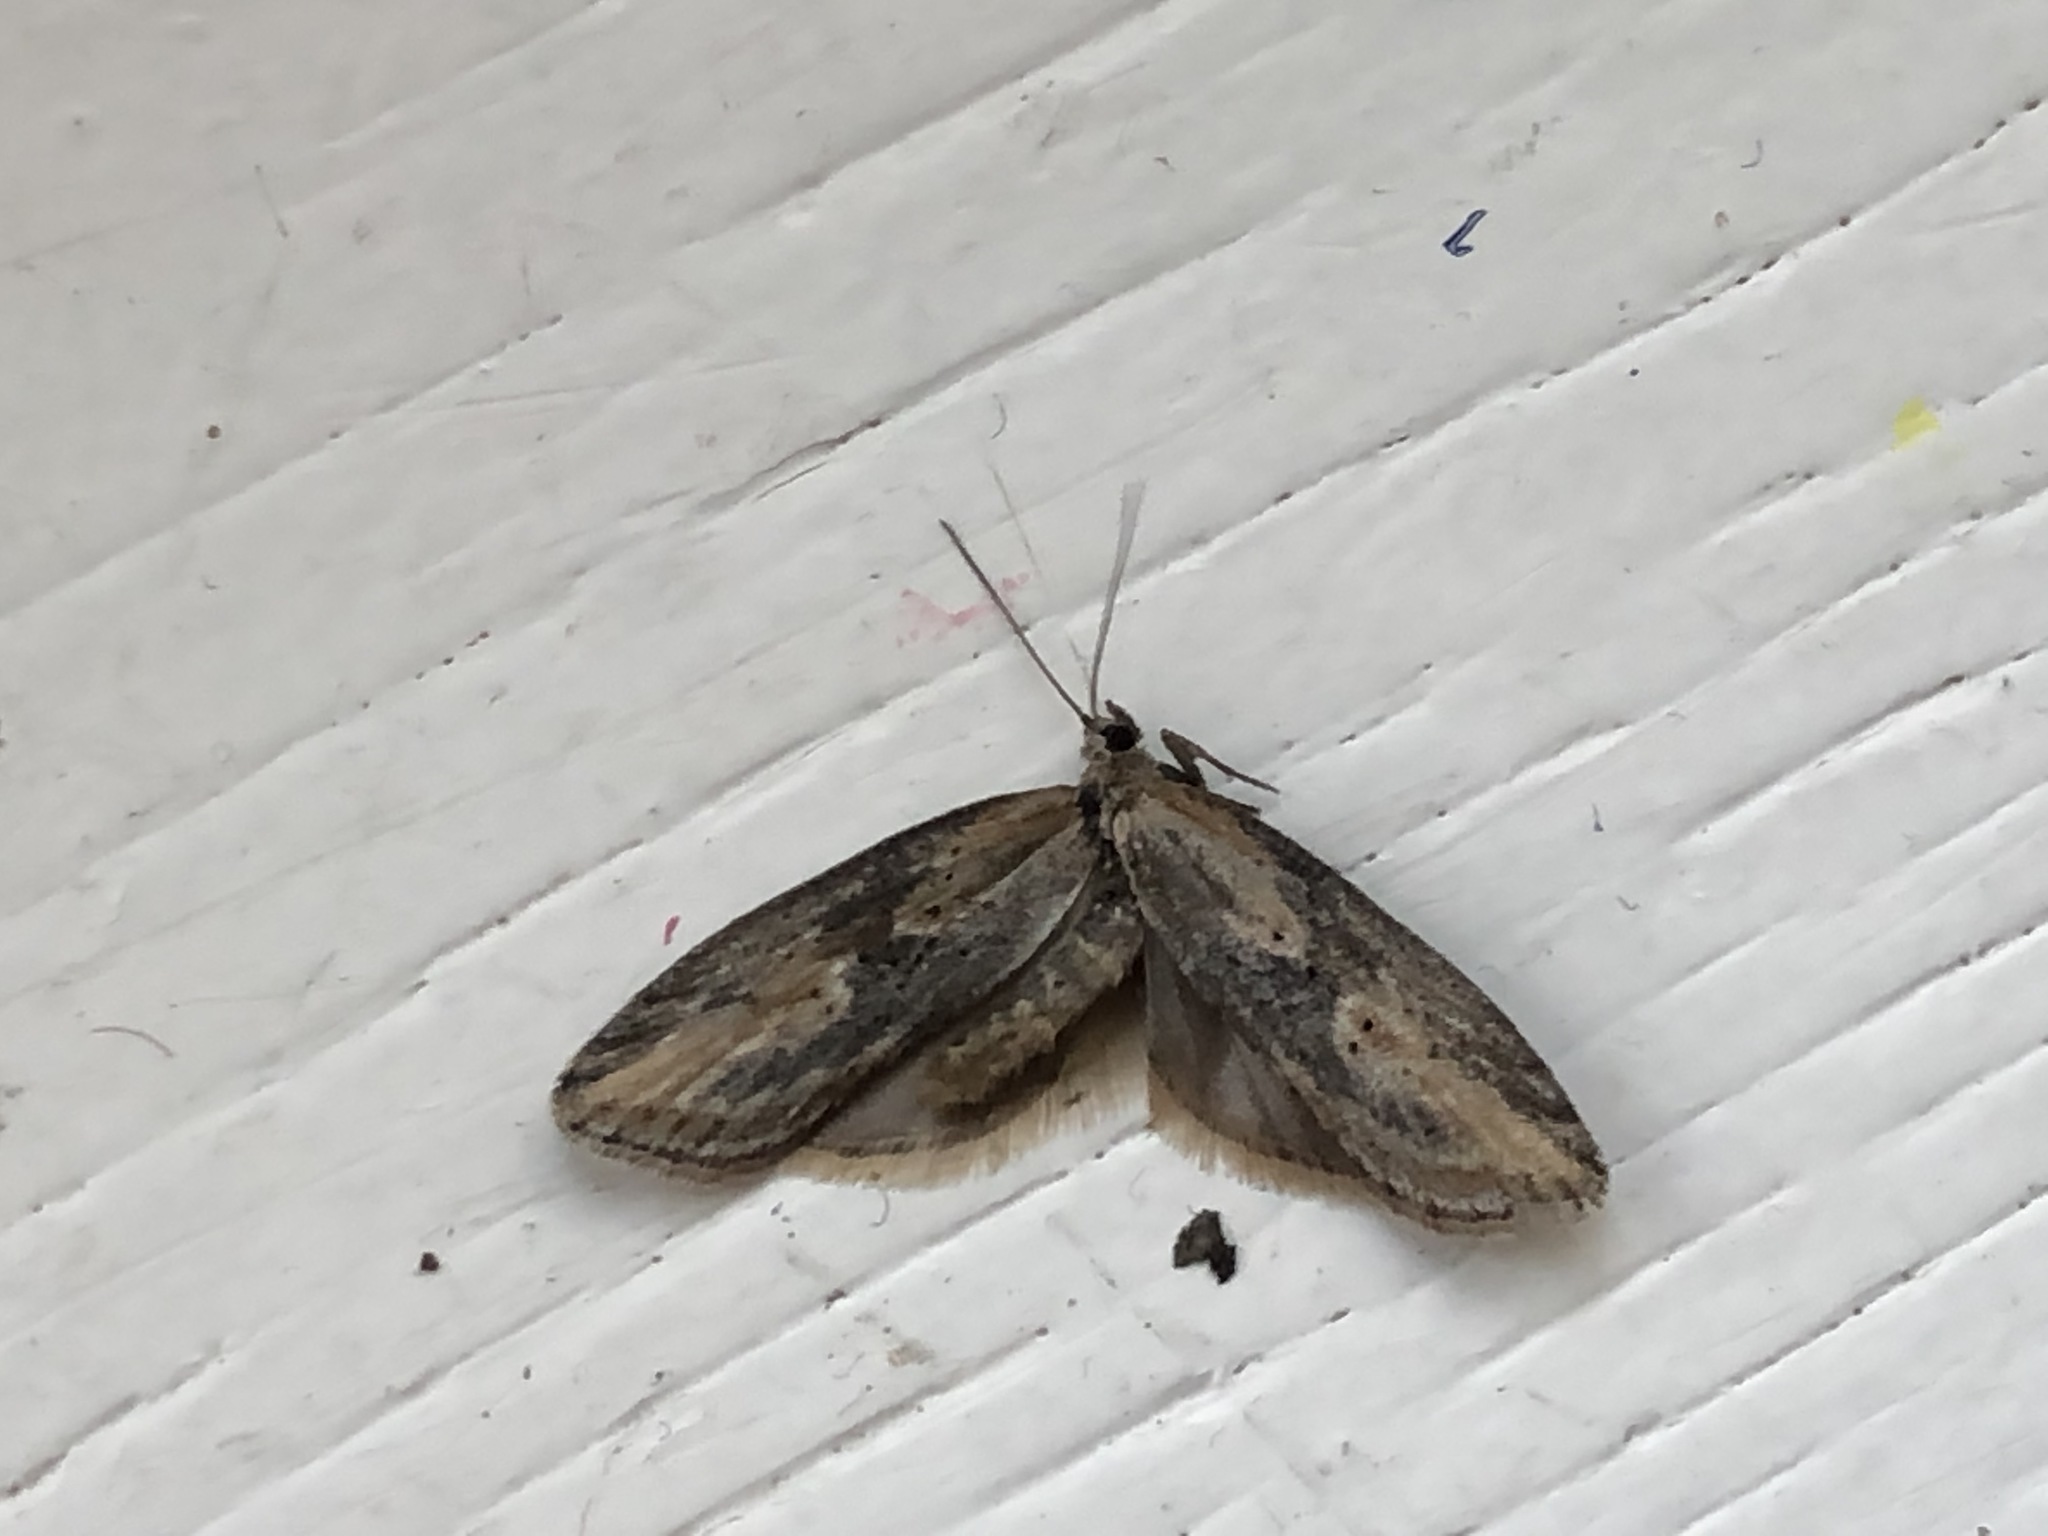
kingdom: Animalia
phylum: Arthropoda
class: Insecta
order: Lepidoptera
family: Tortricidae
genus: Doloploca
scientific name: Doloploca punctulana
